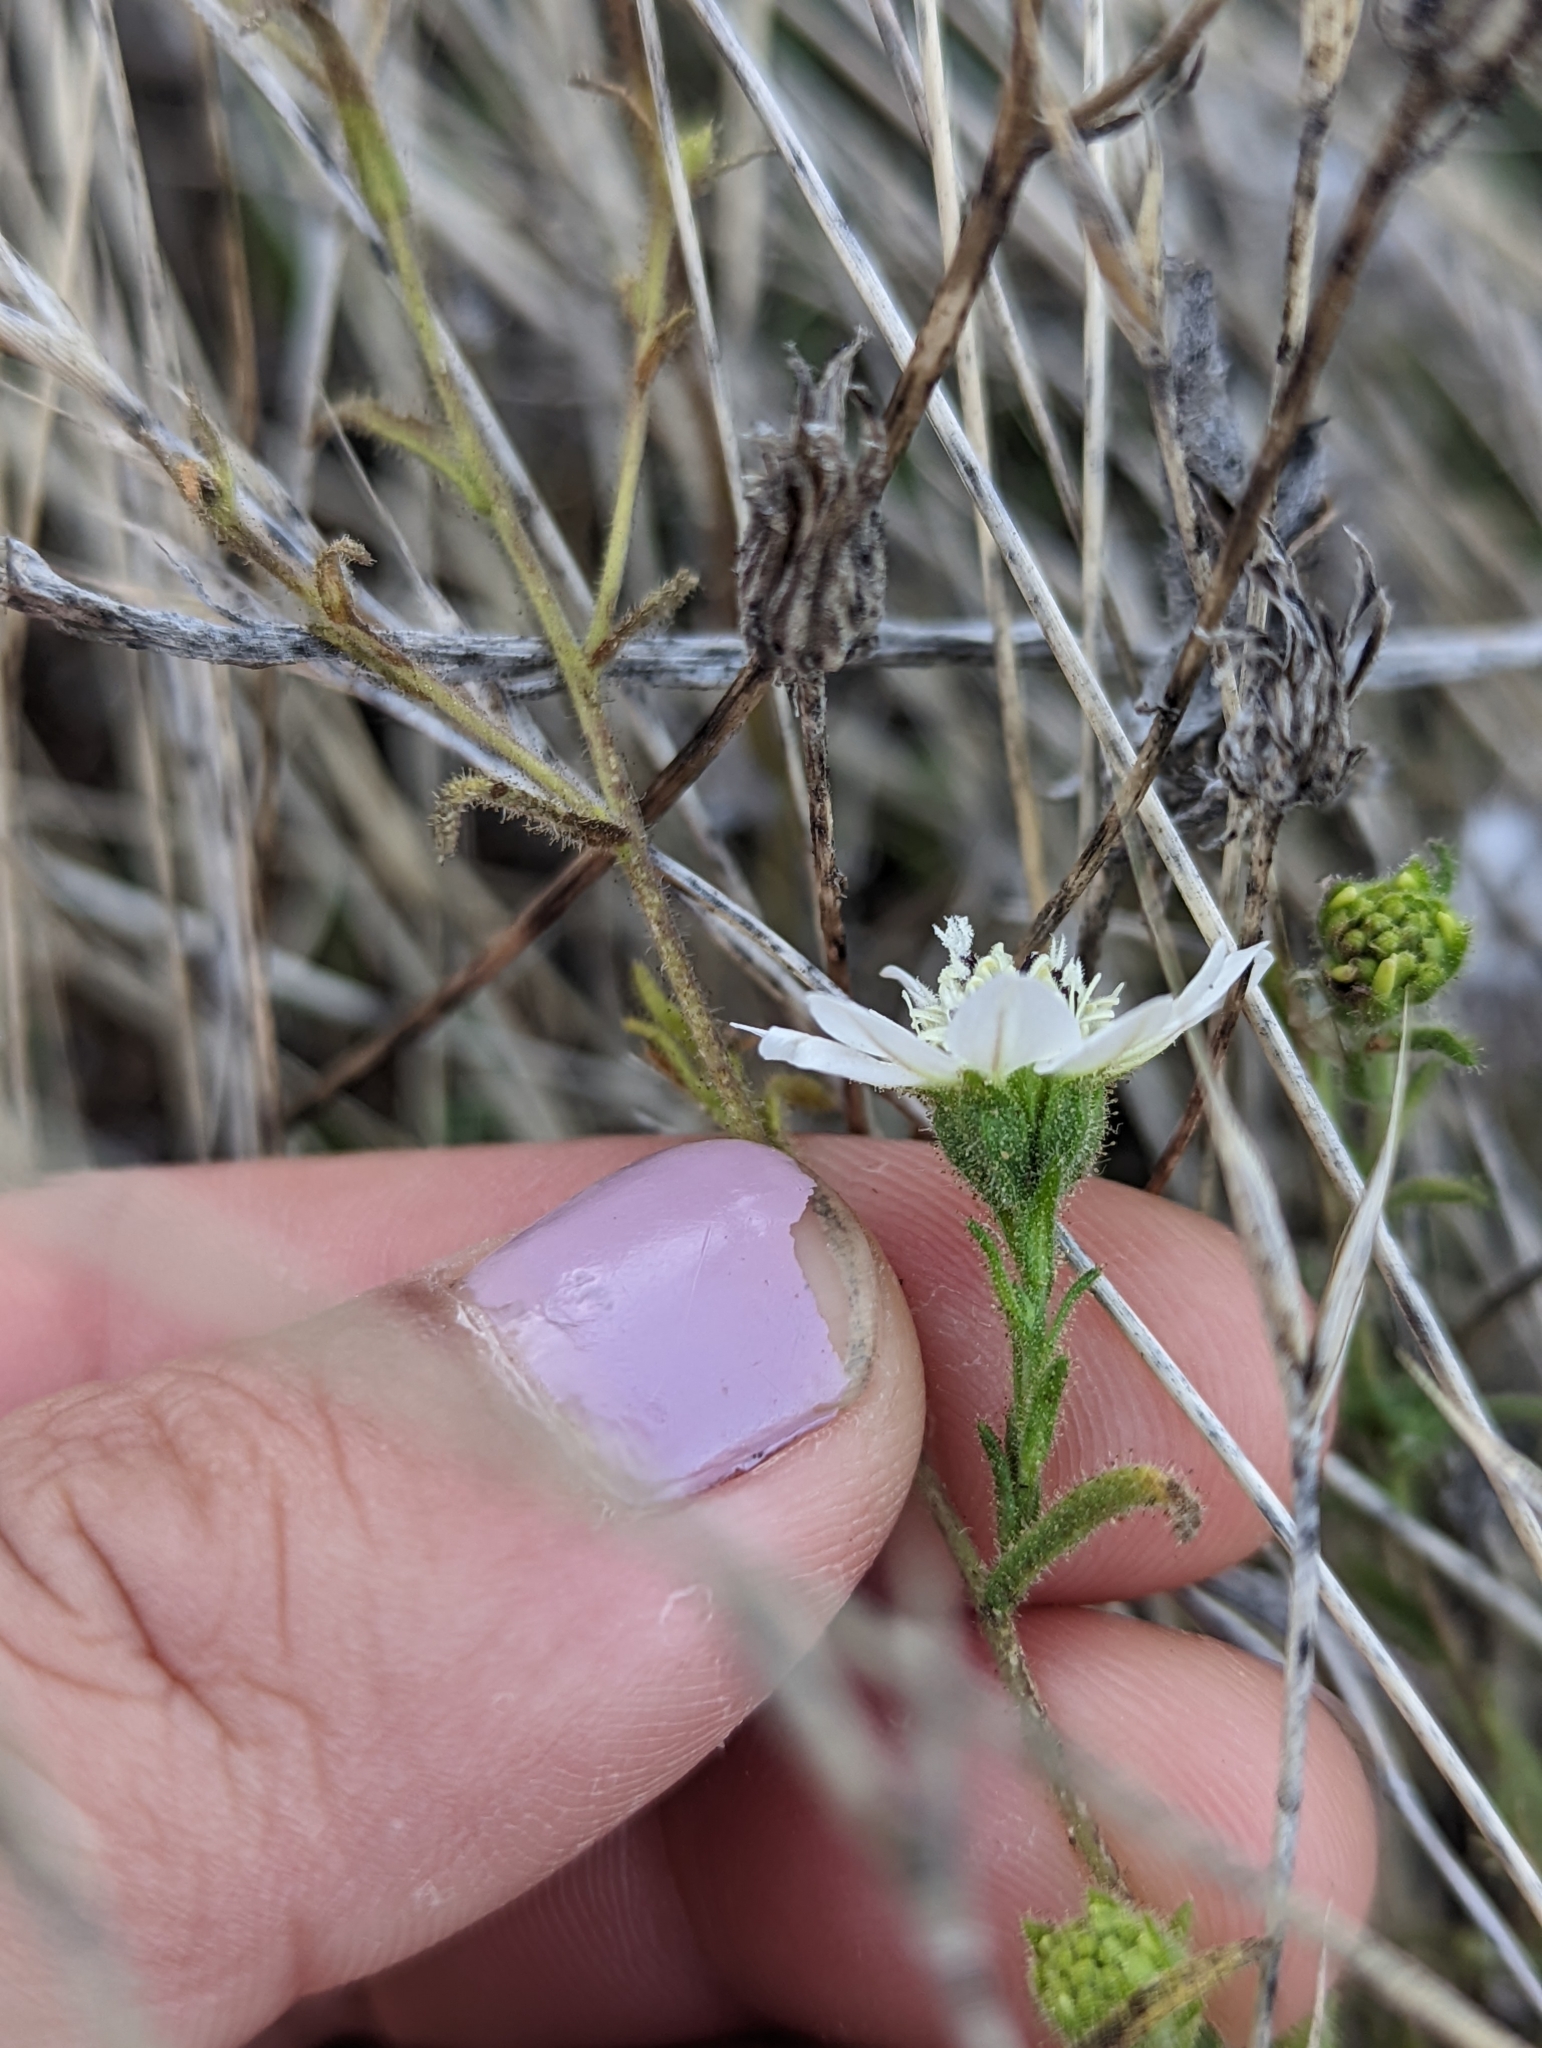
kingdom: Plantae
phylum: Tracheophyta
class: Magnoliopsida
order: Asterales
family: Asteraceae
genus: Hemizonia
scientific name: Hemizonia congesta
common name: Hayfield tarweed
